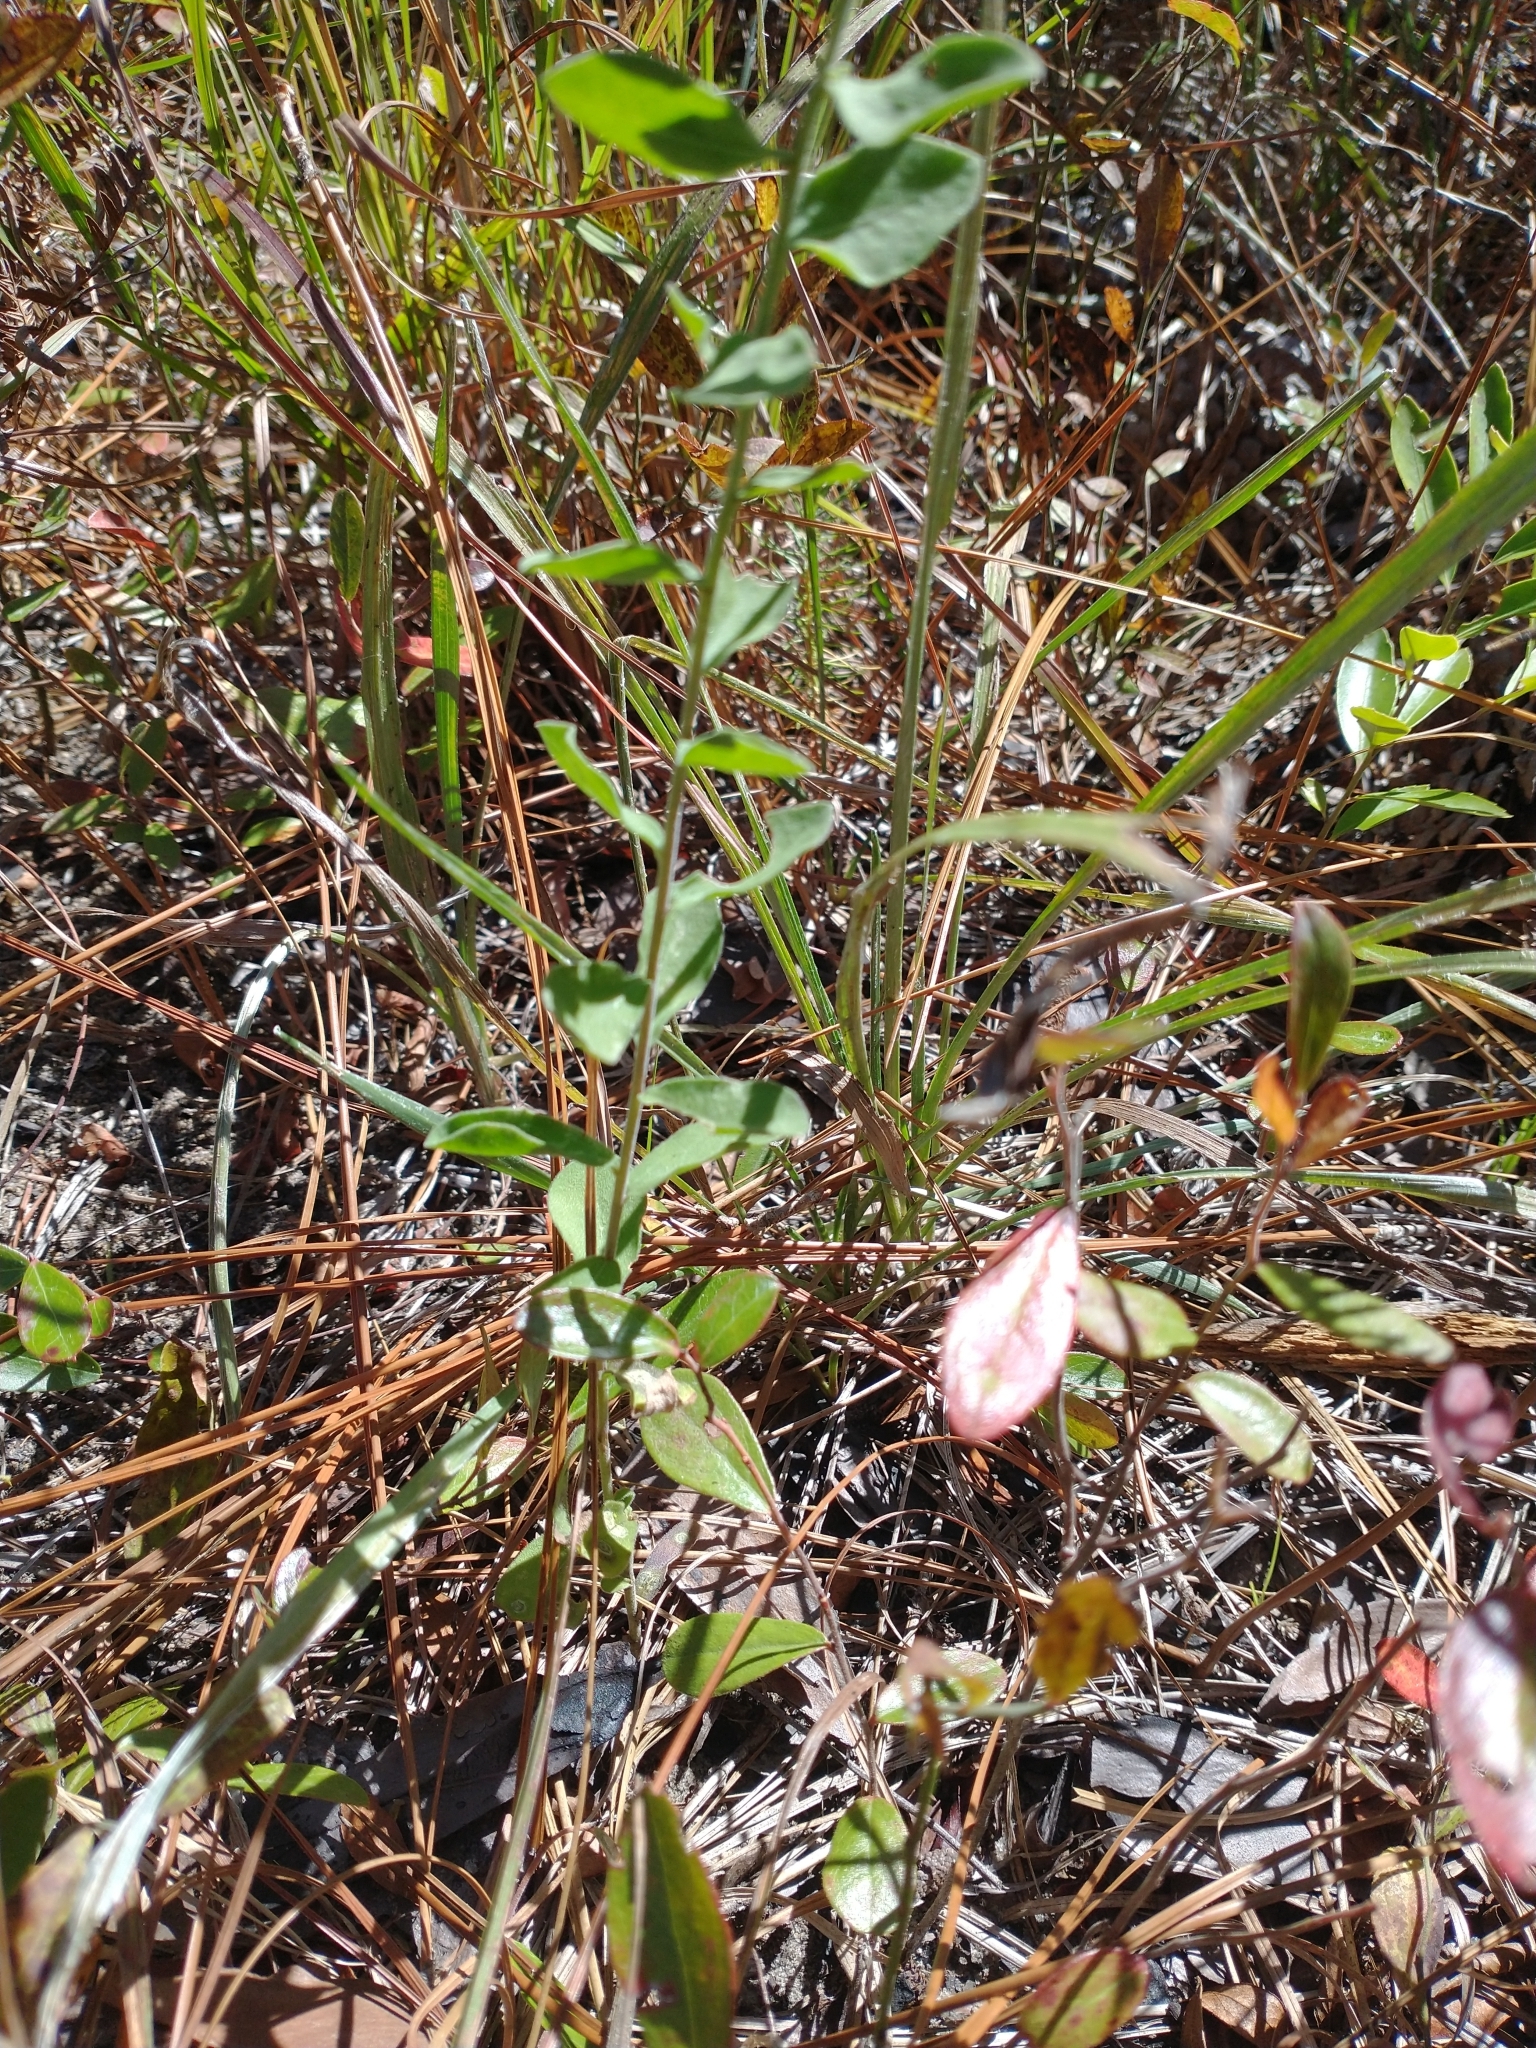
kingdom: Plantae
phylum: Tracheophyta
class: Magnoliopsida
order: Asterales
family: Asteraceae
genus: Sericocarpus
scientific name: Sericocarpus tortifolius
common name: Dixie aster
